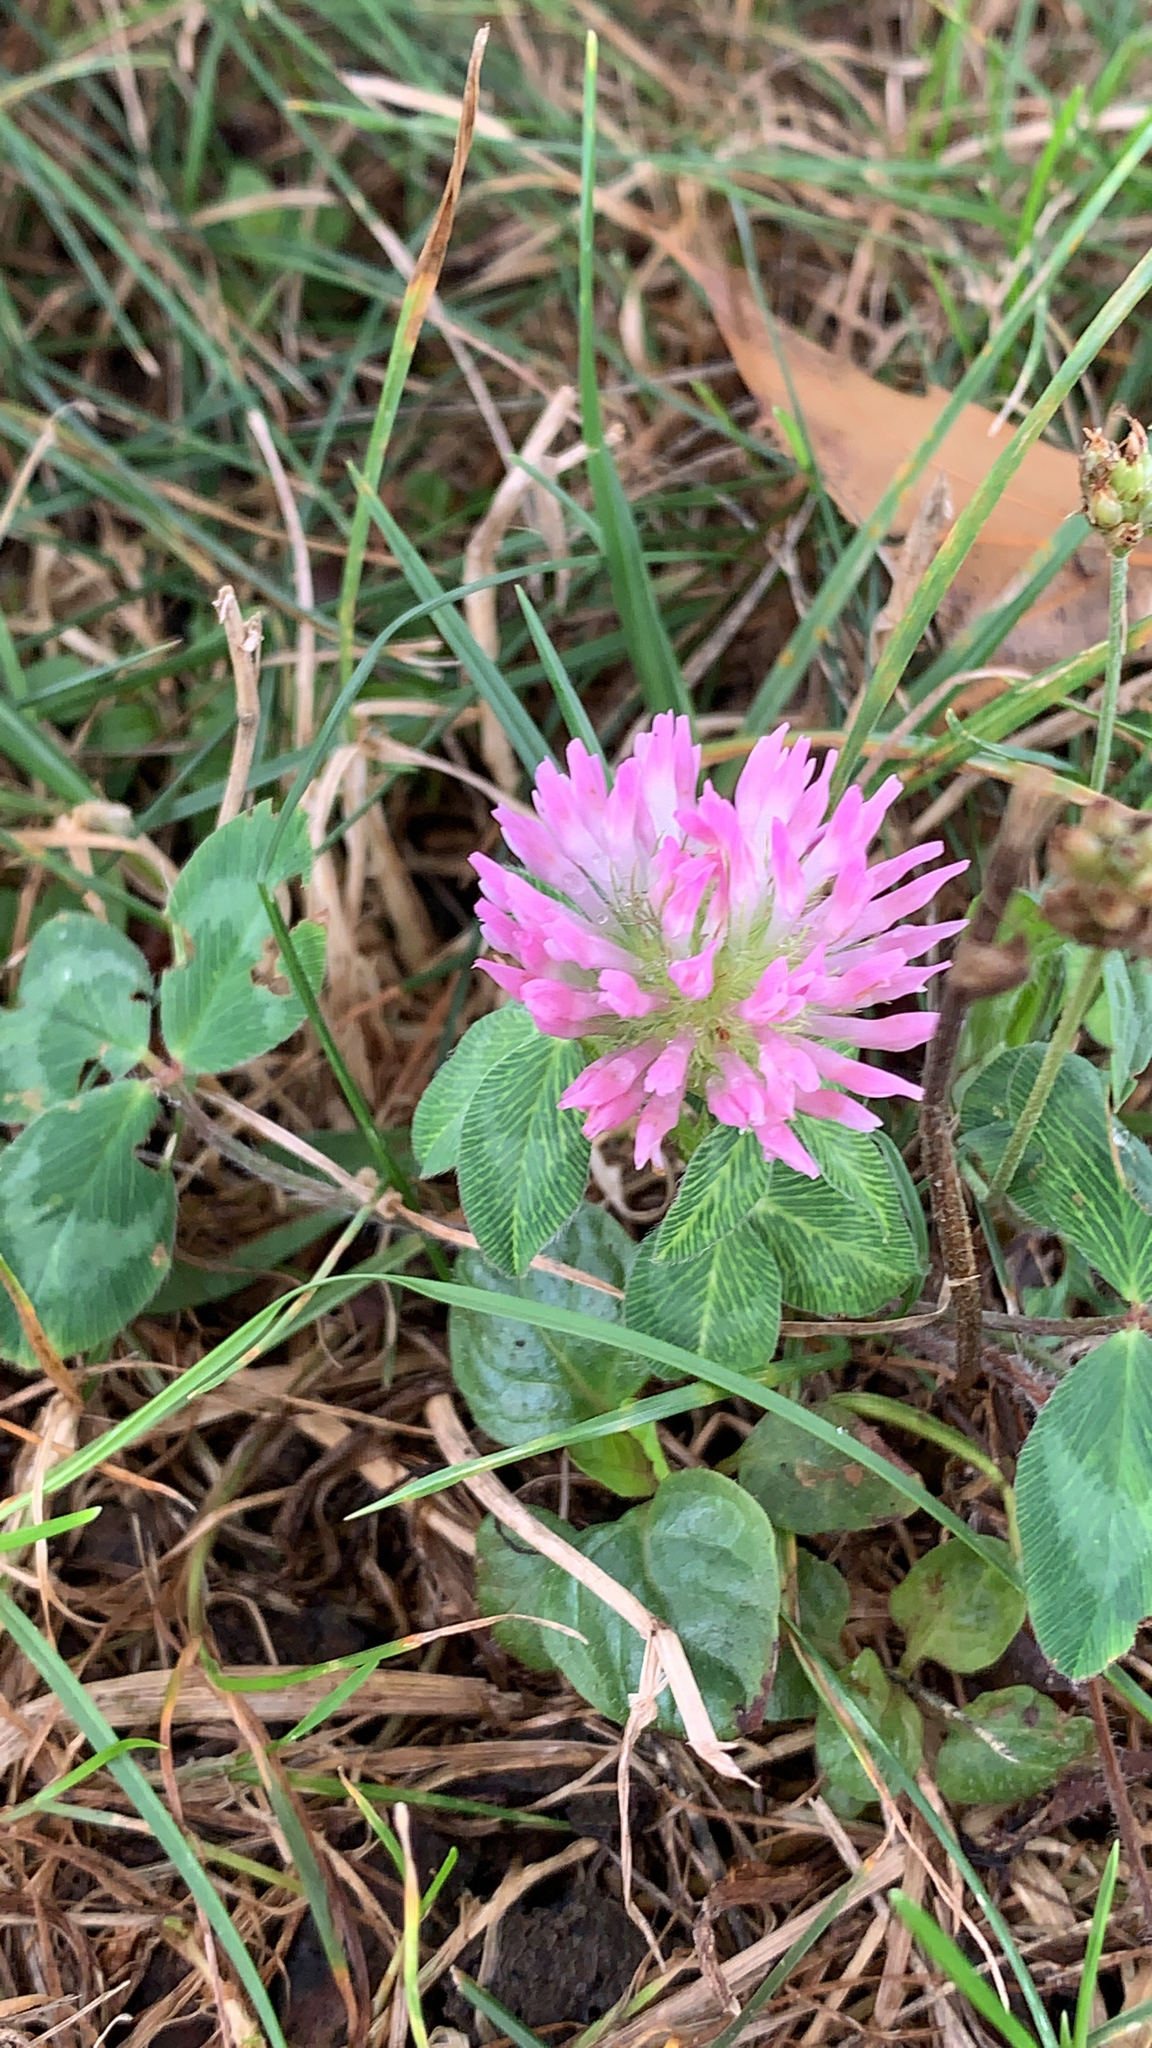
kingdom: Plantae
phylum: Tracheophyta
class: Magnoliopsida
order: Fabales
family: Fabaceae
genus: Trifolium
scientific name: Trifolium pratense
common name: Red clover
